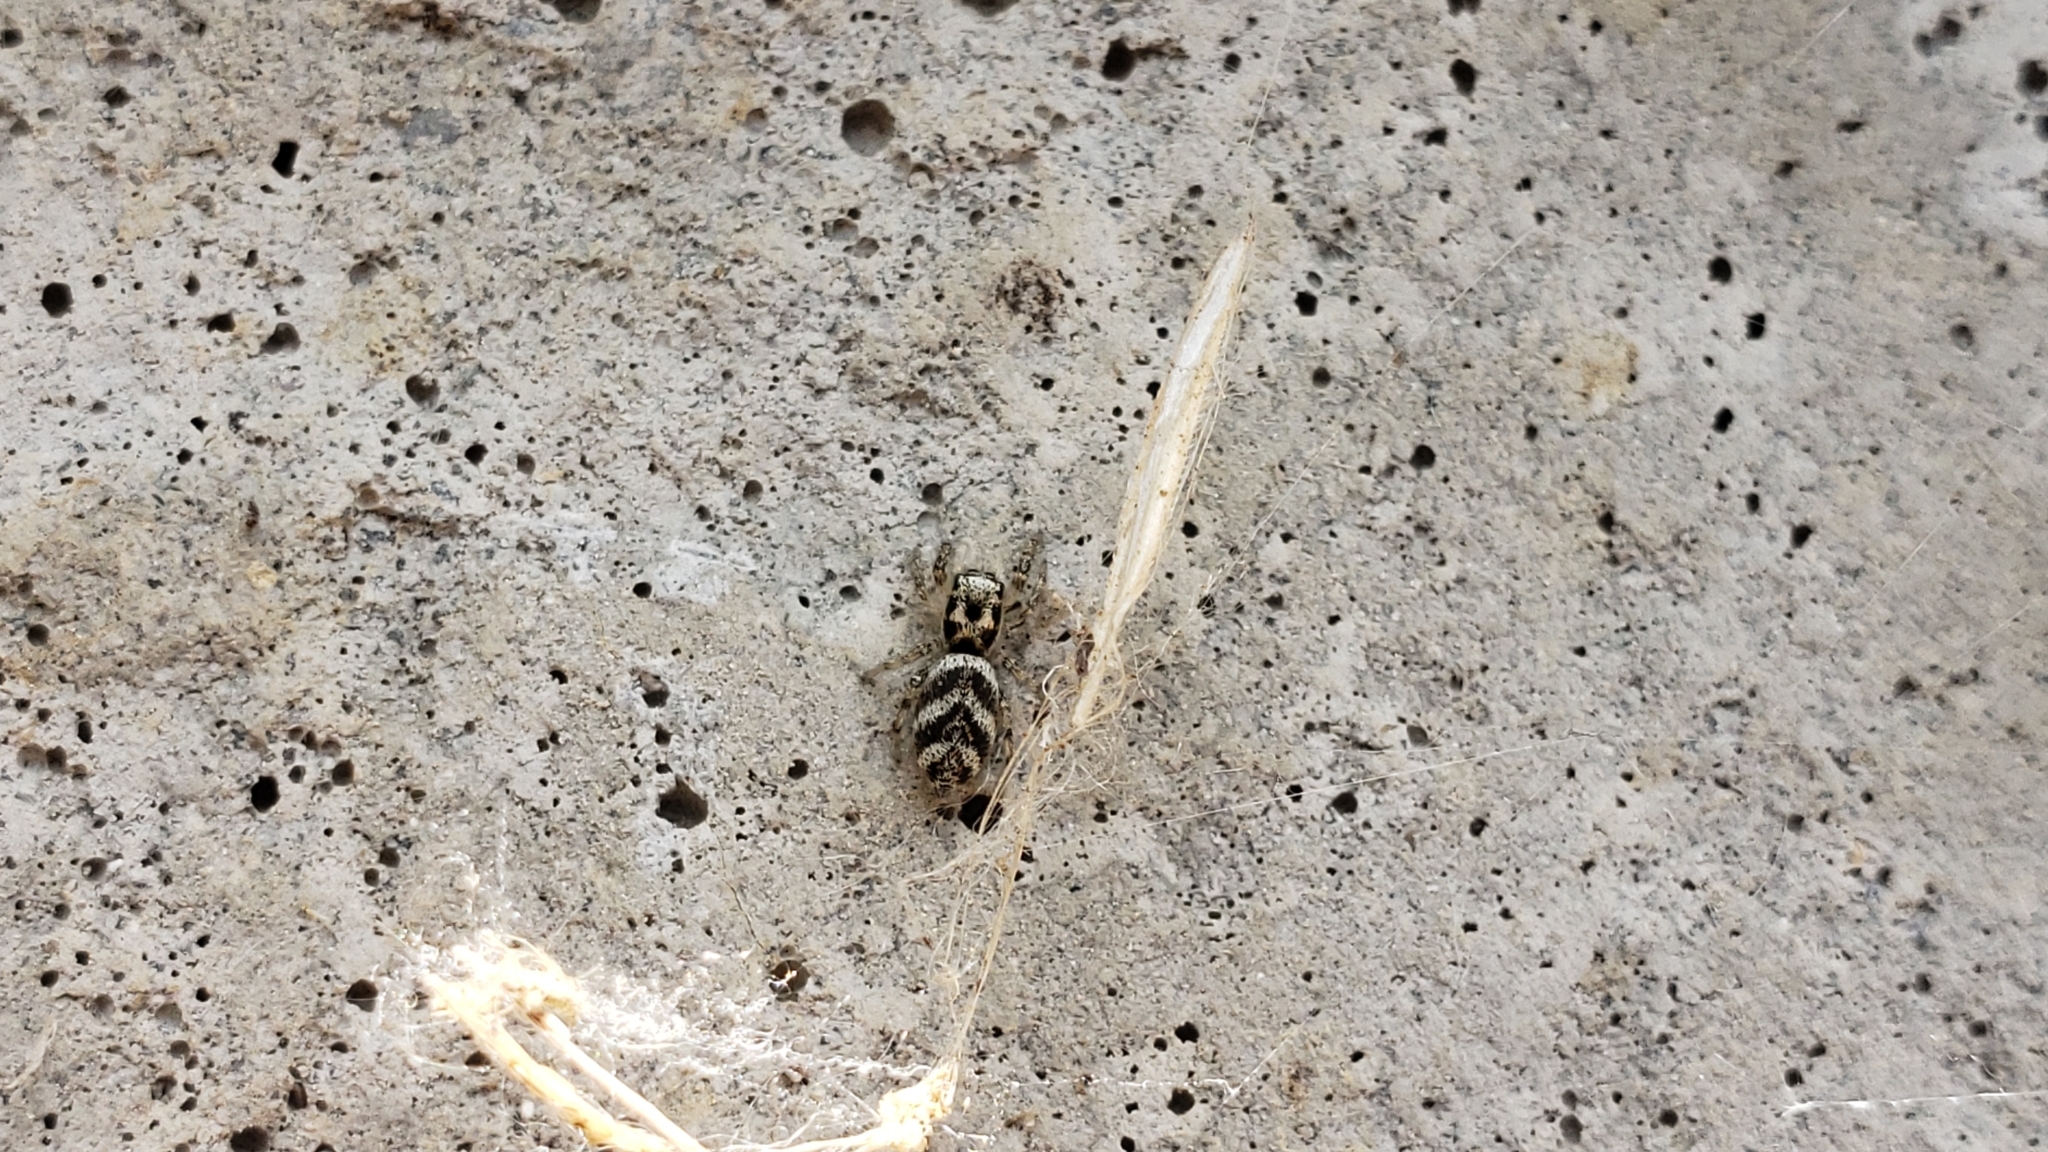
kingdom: Animalia
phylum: Arthropoda
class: Arachnida
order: Araneae
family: Salticidae
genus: Salticus
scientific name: Salticus scenicus
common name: Zebra jumper
